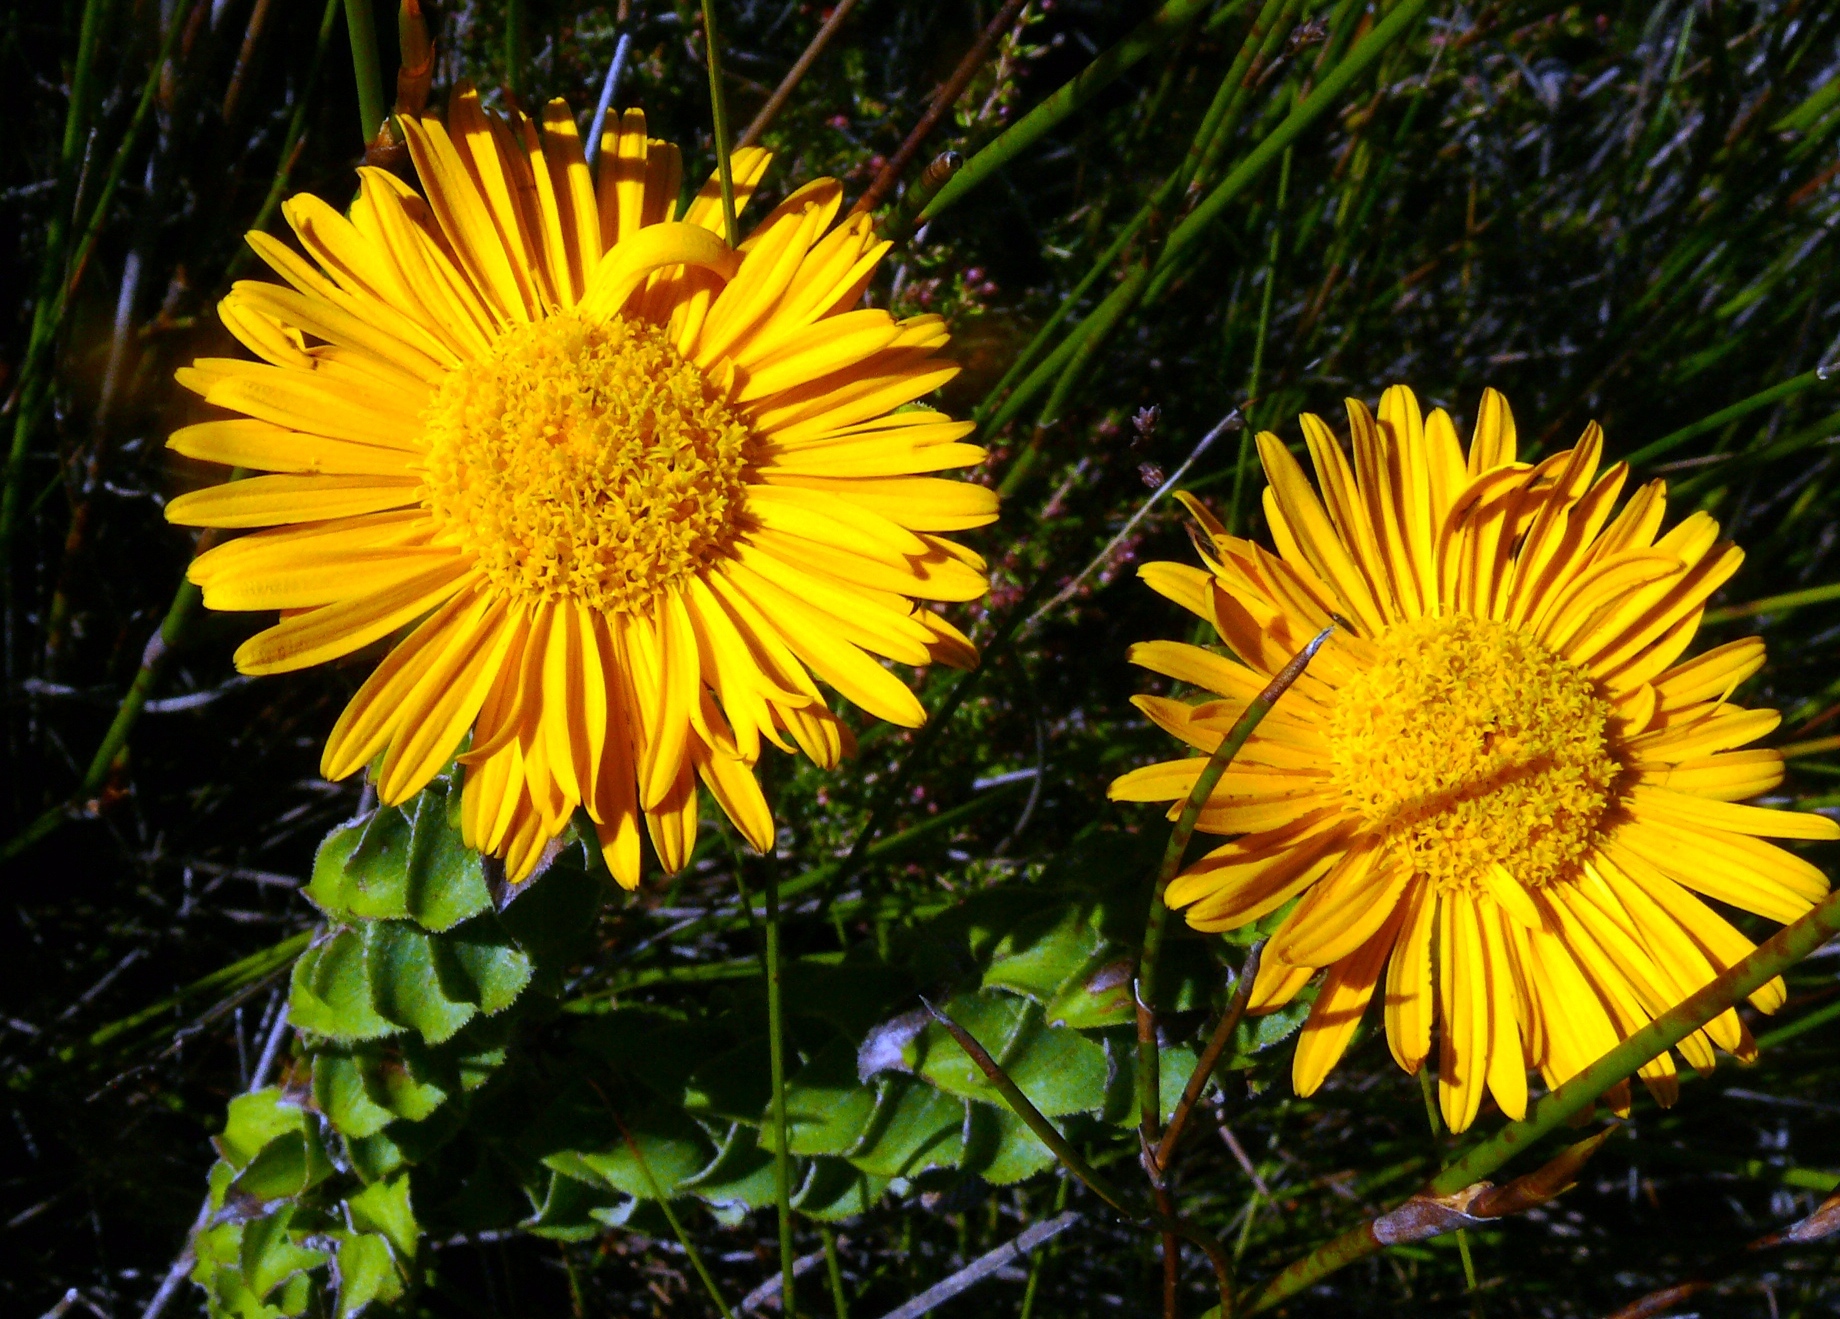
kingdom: Plantae
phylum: Tracheophyta
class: Magnoliopsida
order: Asterales
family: Asteraceae
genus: Oedera
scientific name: Oedera imbricata
